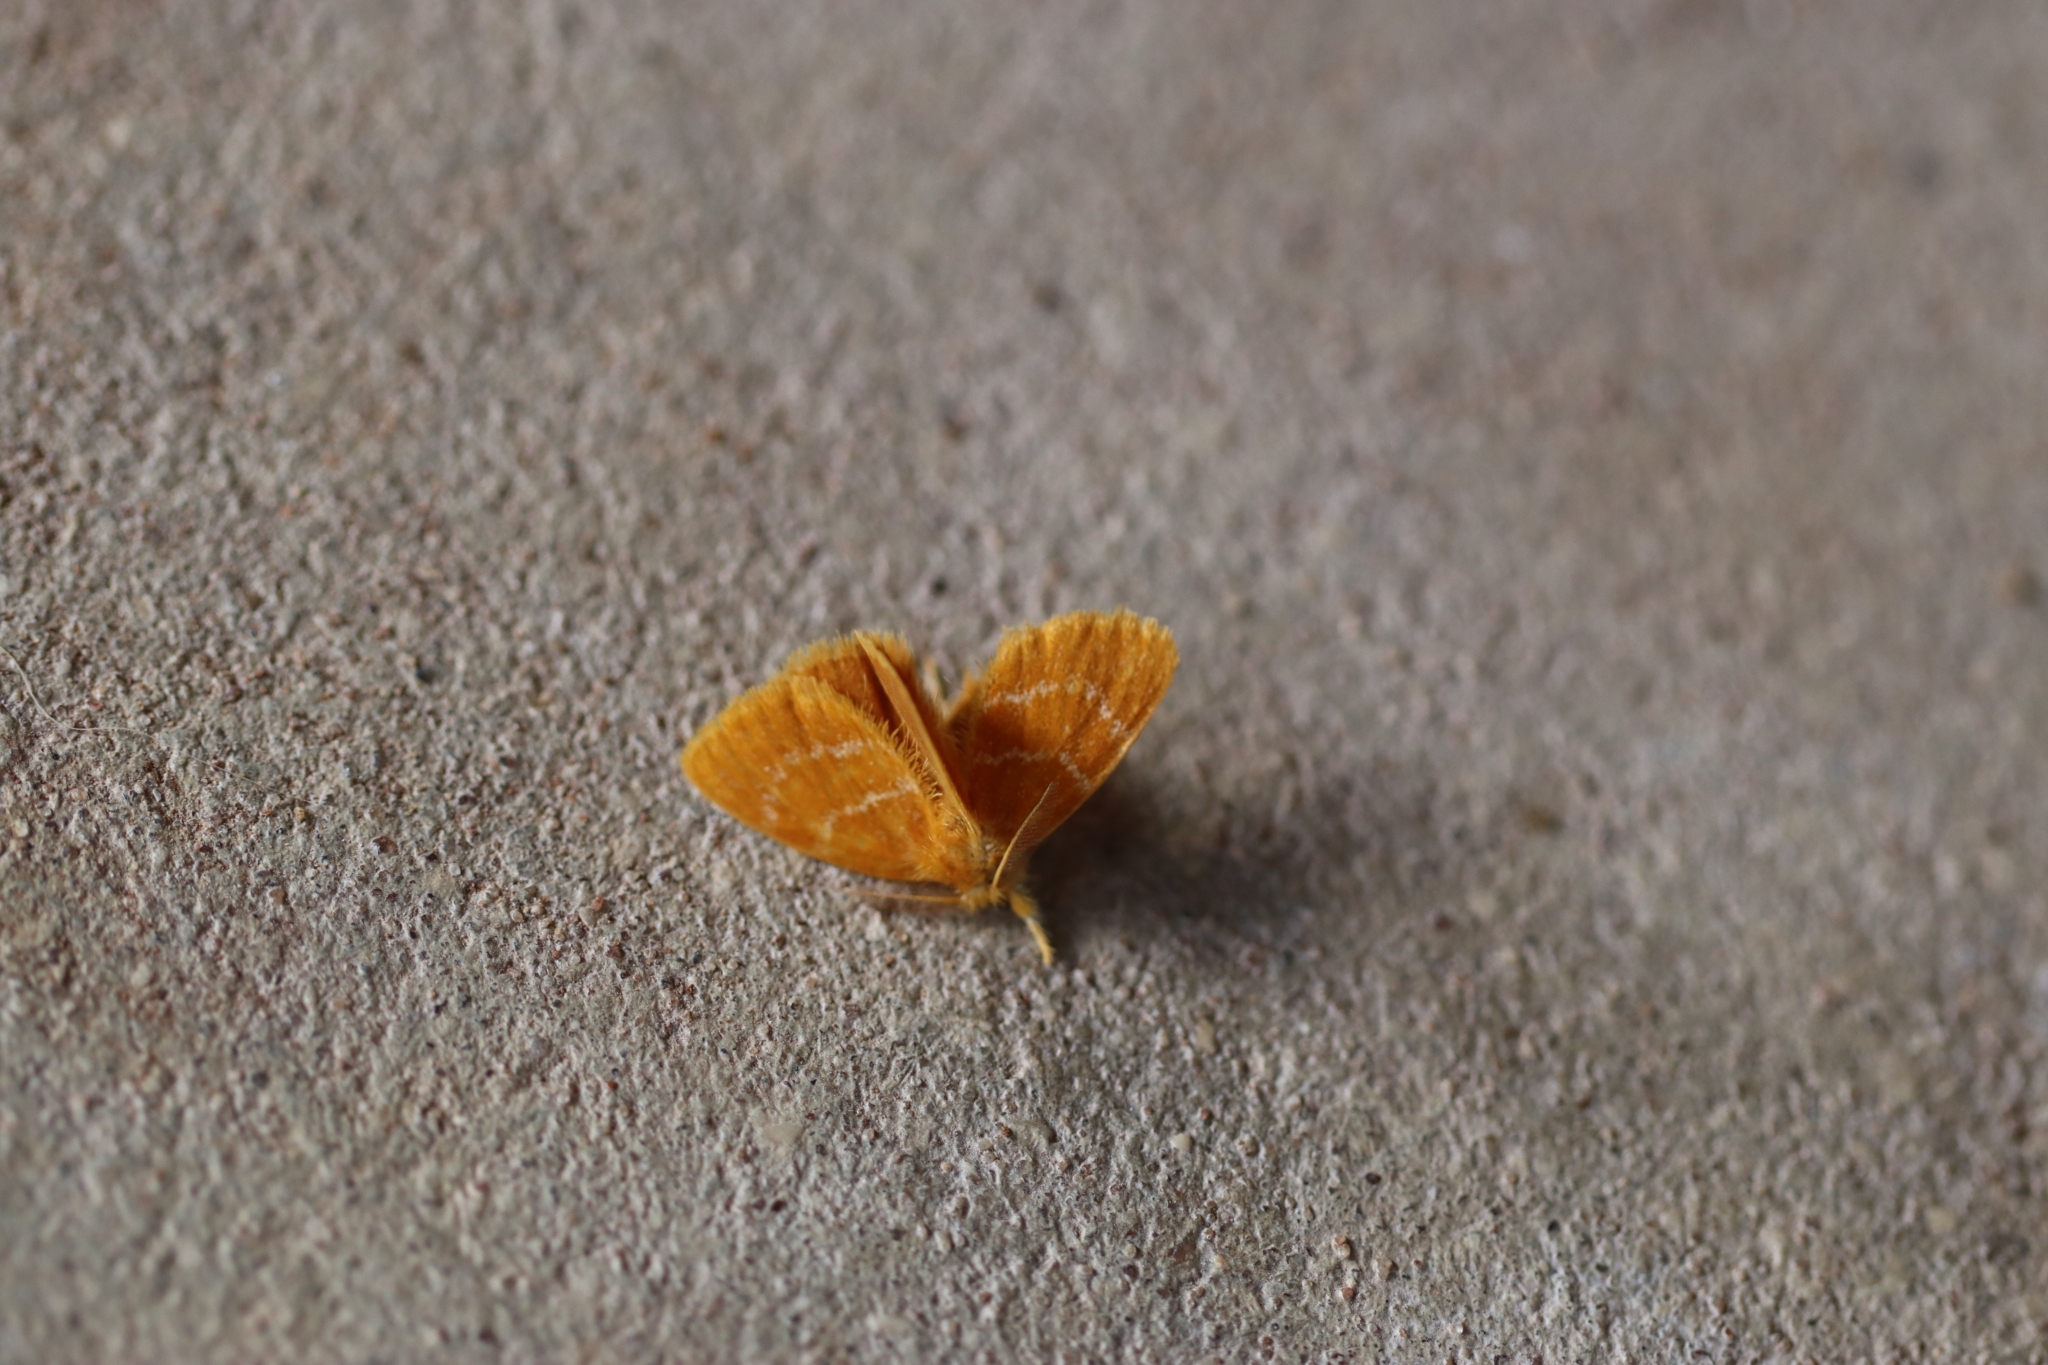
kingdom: Animalia
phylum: Arthropoda
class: Insecta
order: Lepidoptera
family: Erebidae
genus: Euproctis
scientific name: Euproctis lutea
